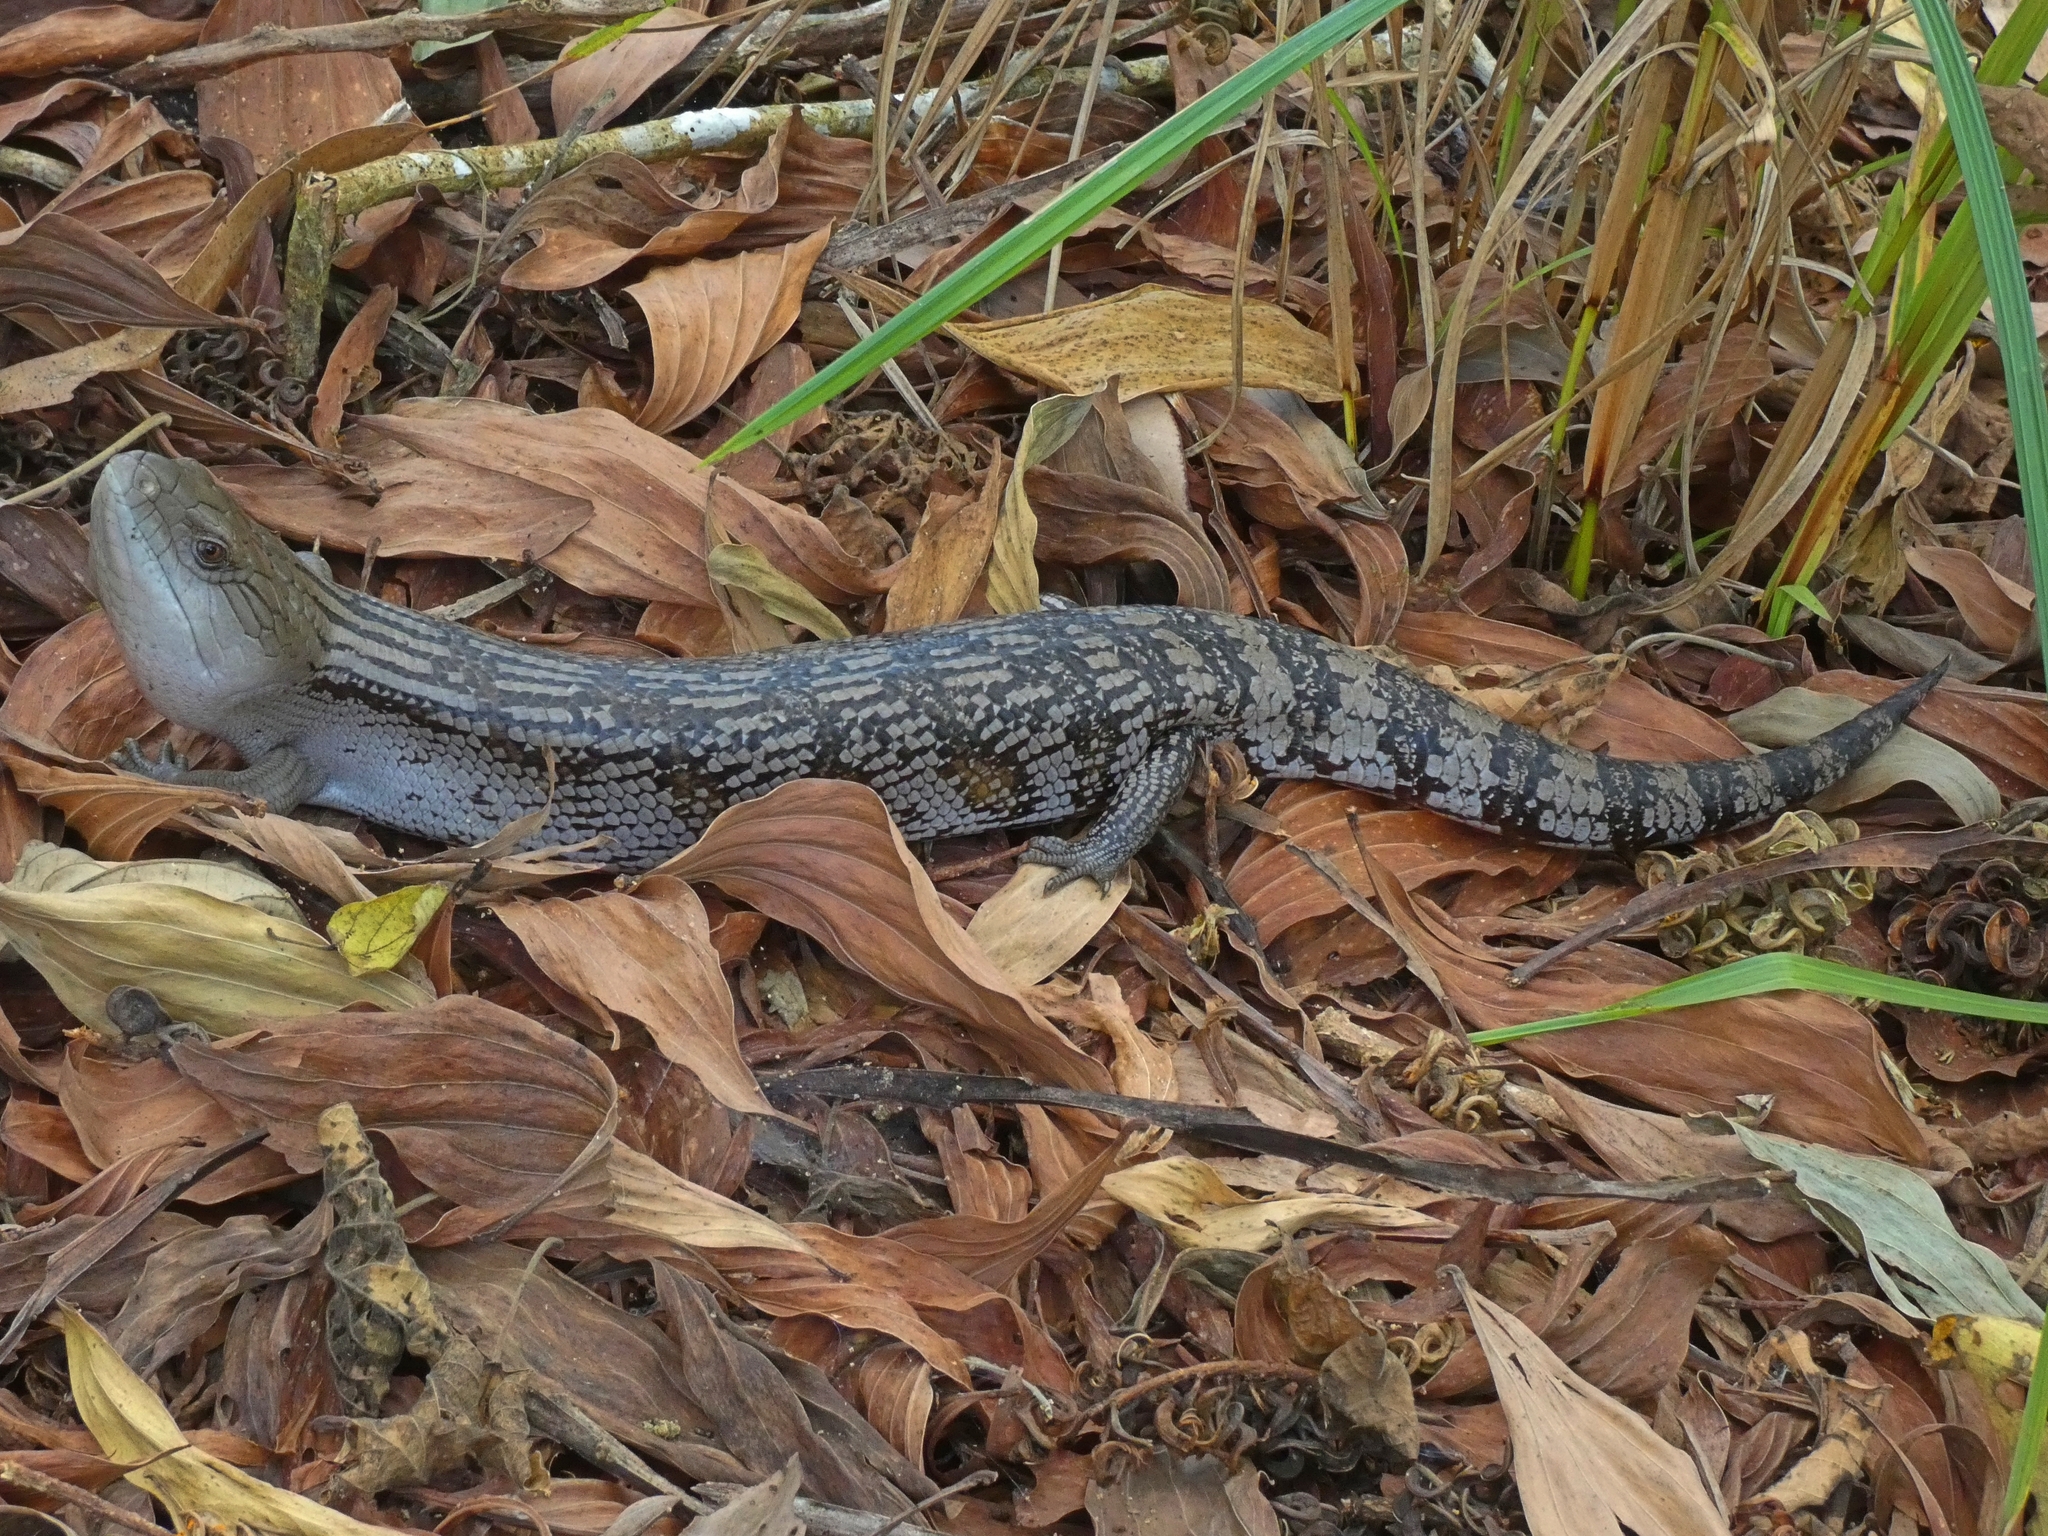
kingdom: Animalia
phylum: Chordata
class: Squamata
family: Scincidae
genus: Tiliqua
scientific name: Tiliqua scincoides
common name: Common bluetongue
